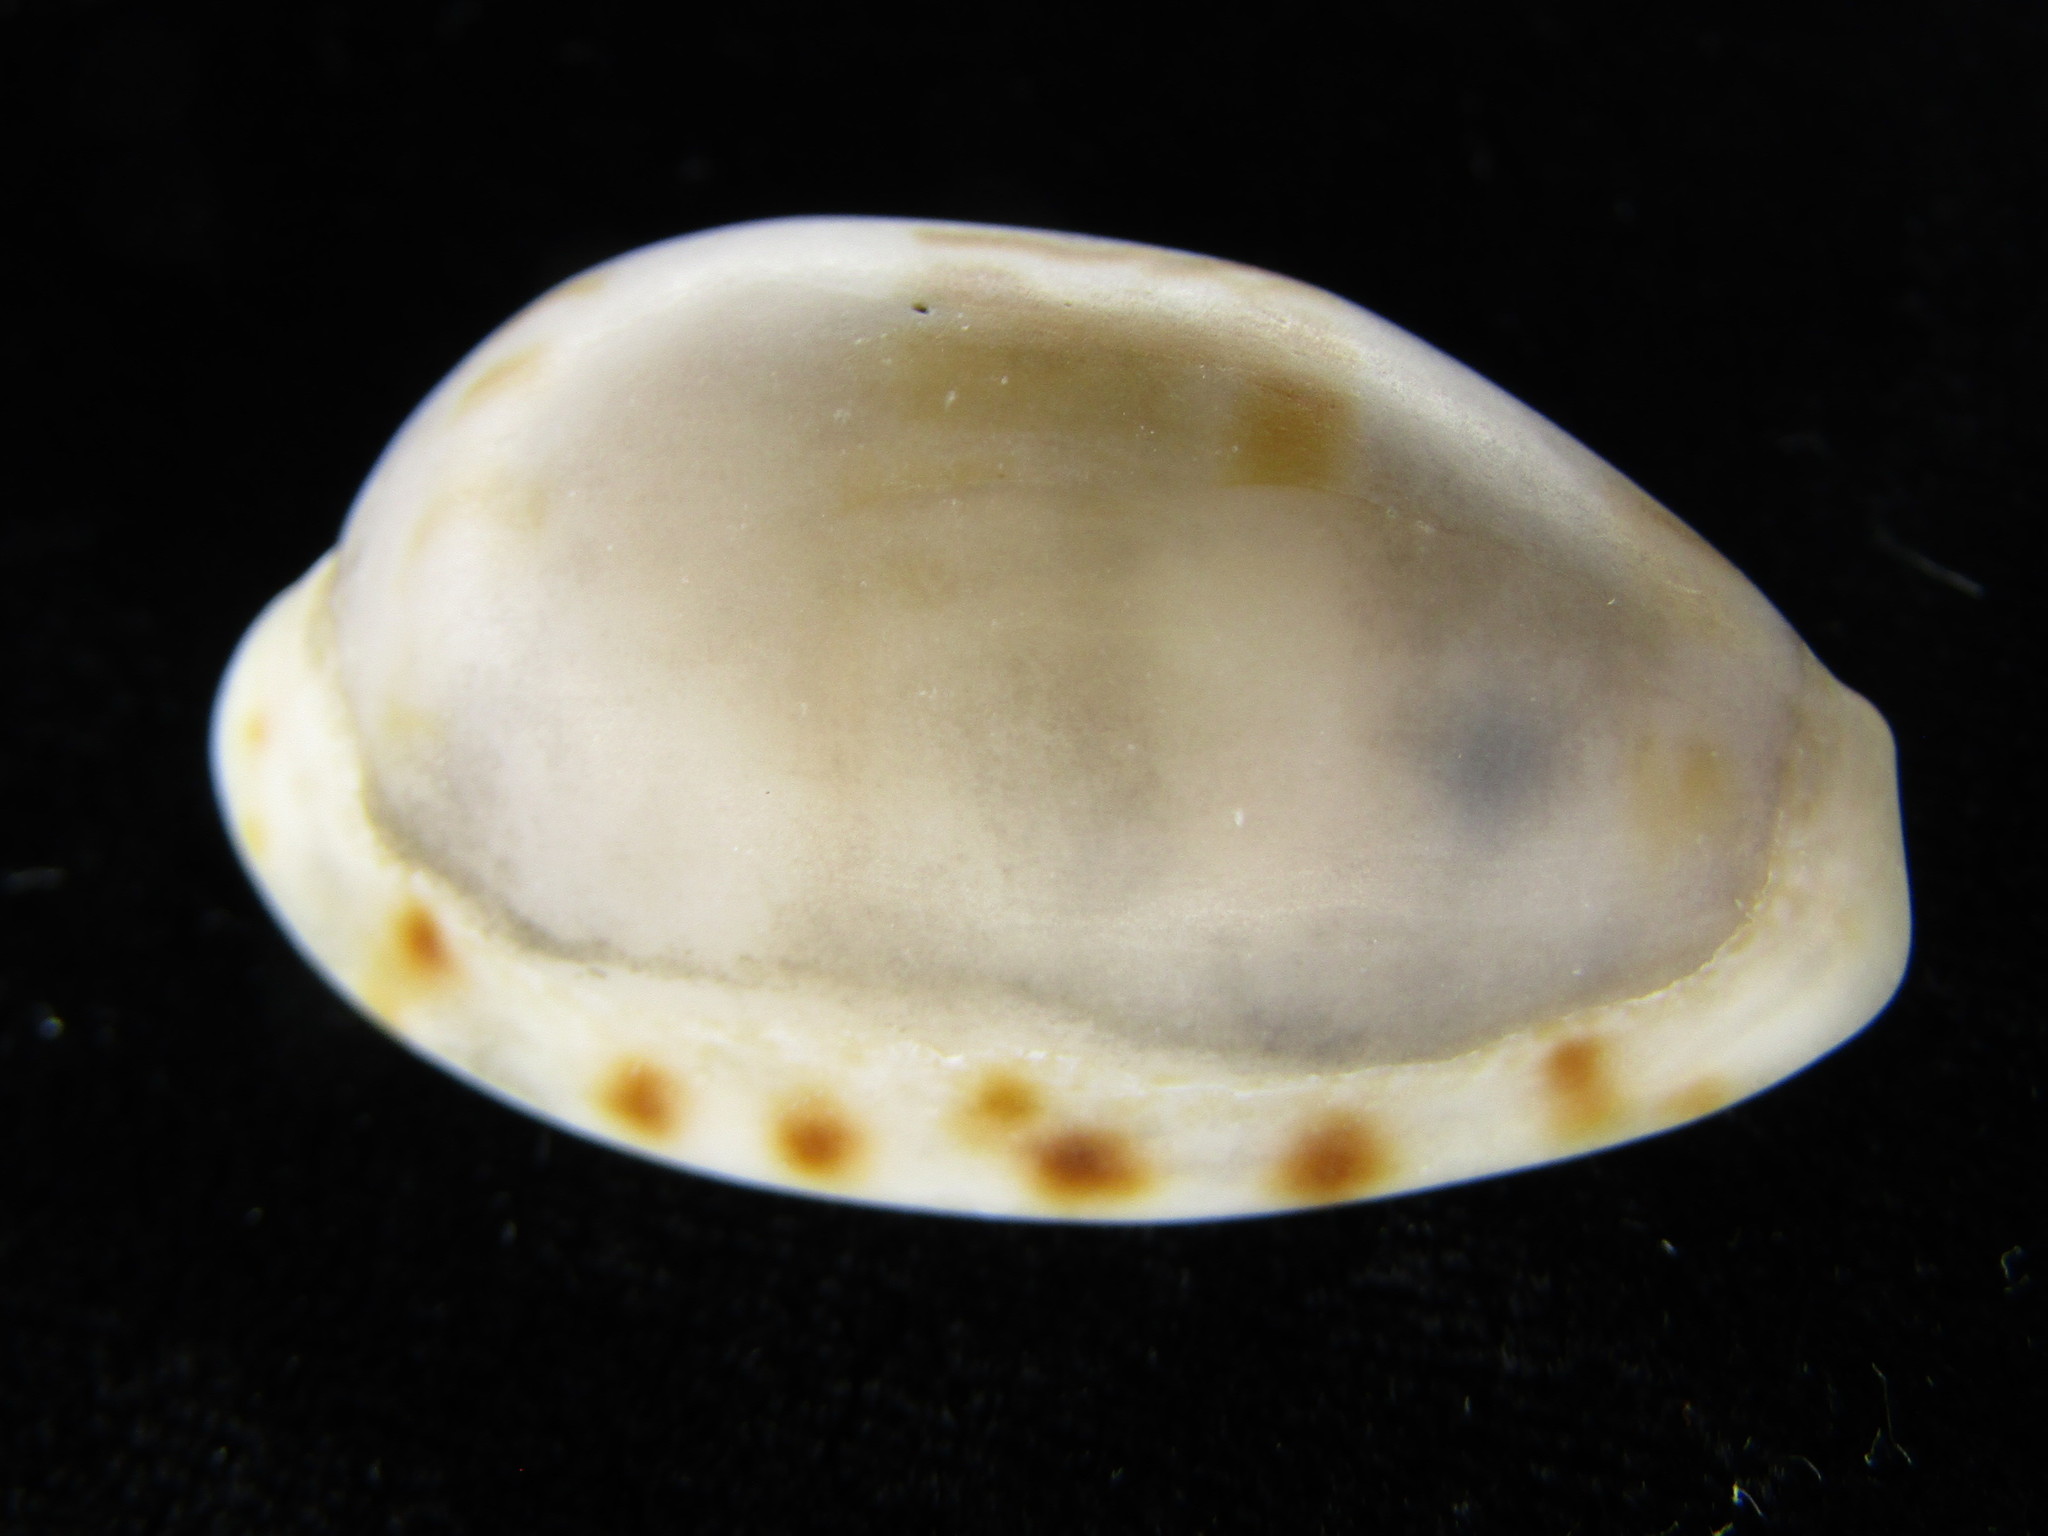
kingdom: Animalia
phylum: Mollusca
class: Gastropoda
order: Littorinimorpha
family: Cypraeidae
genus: Talostolida
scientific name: Talostolida pellucens
